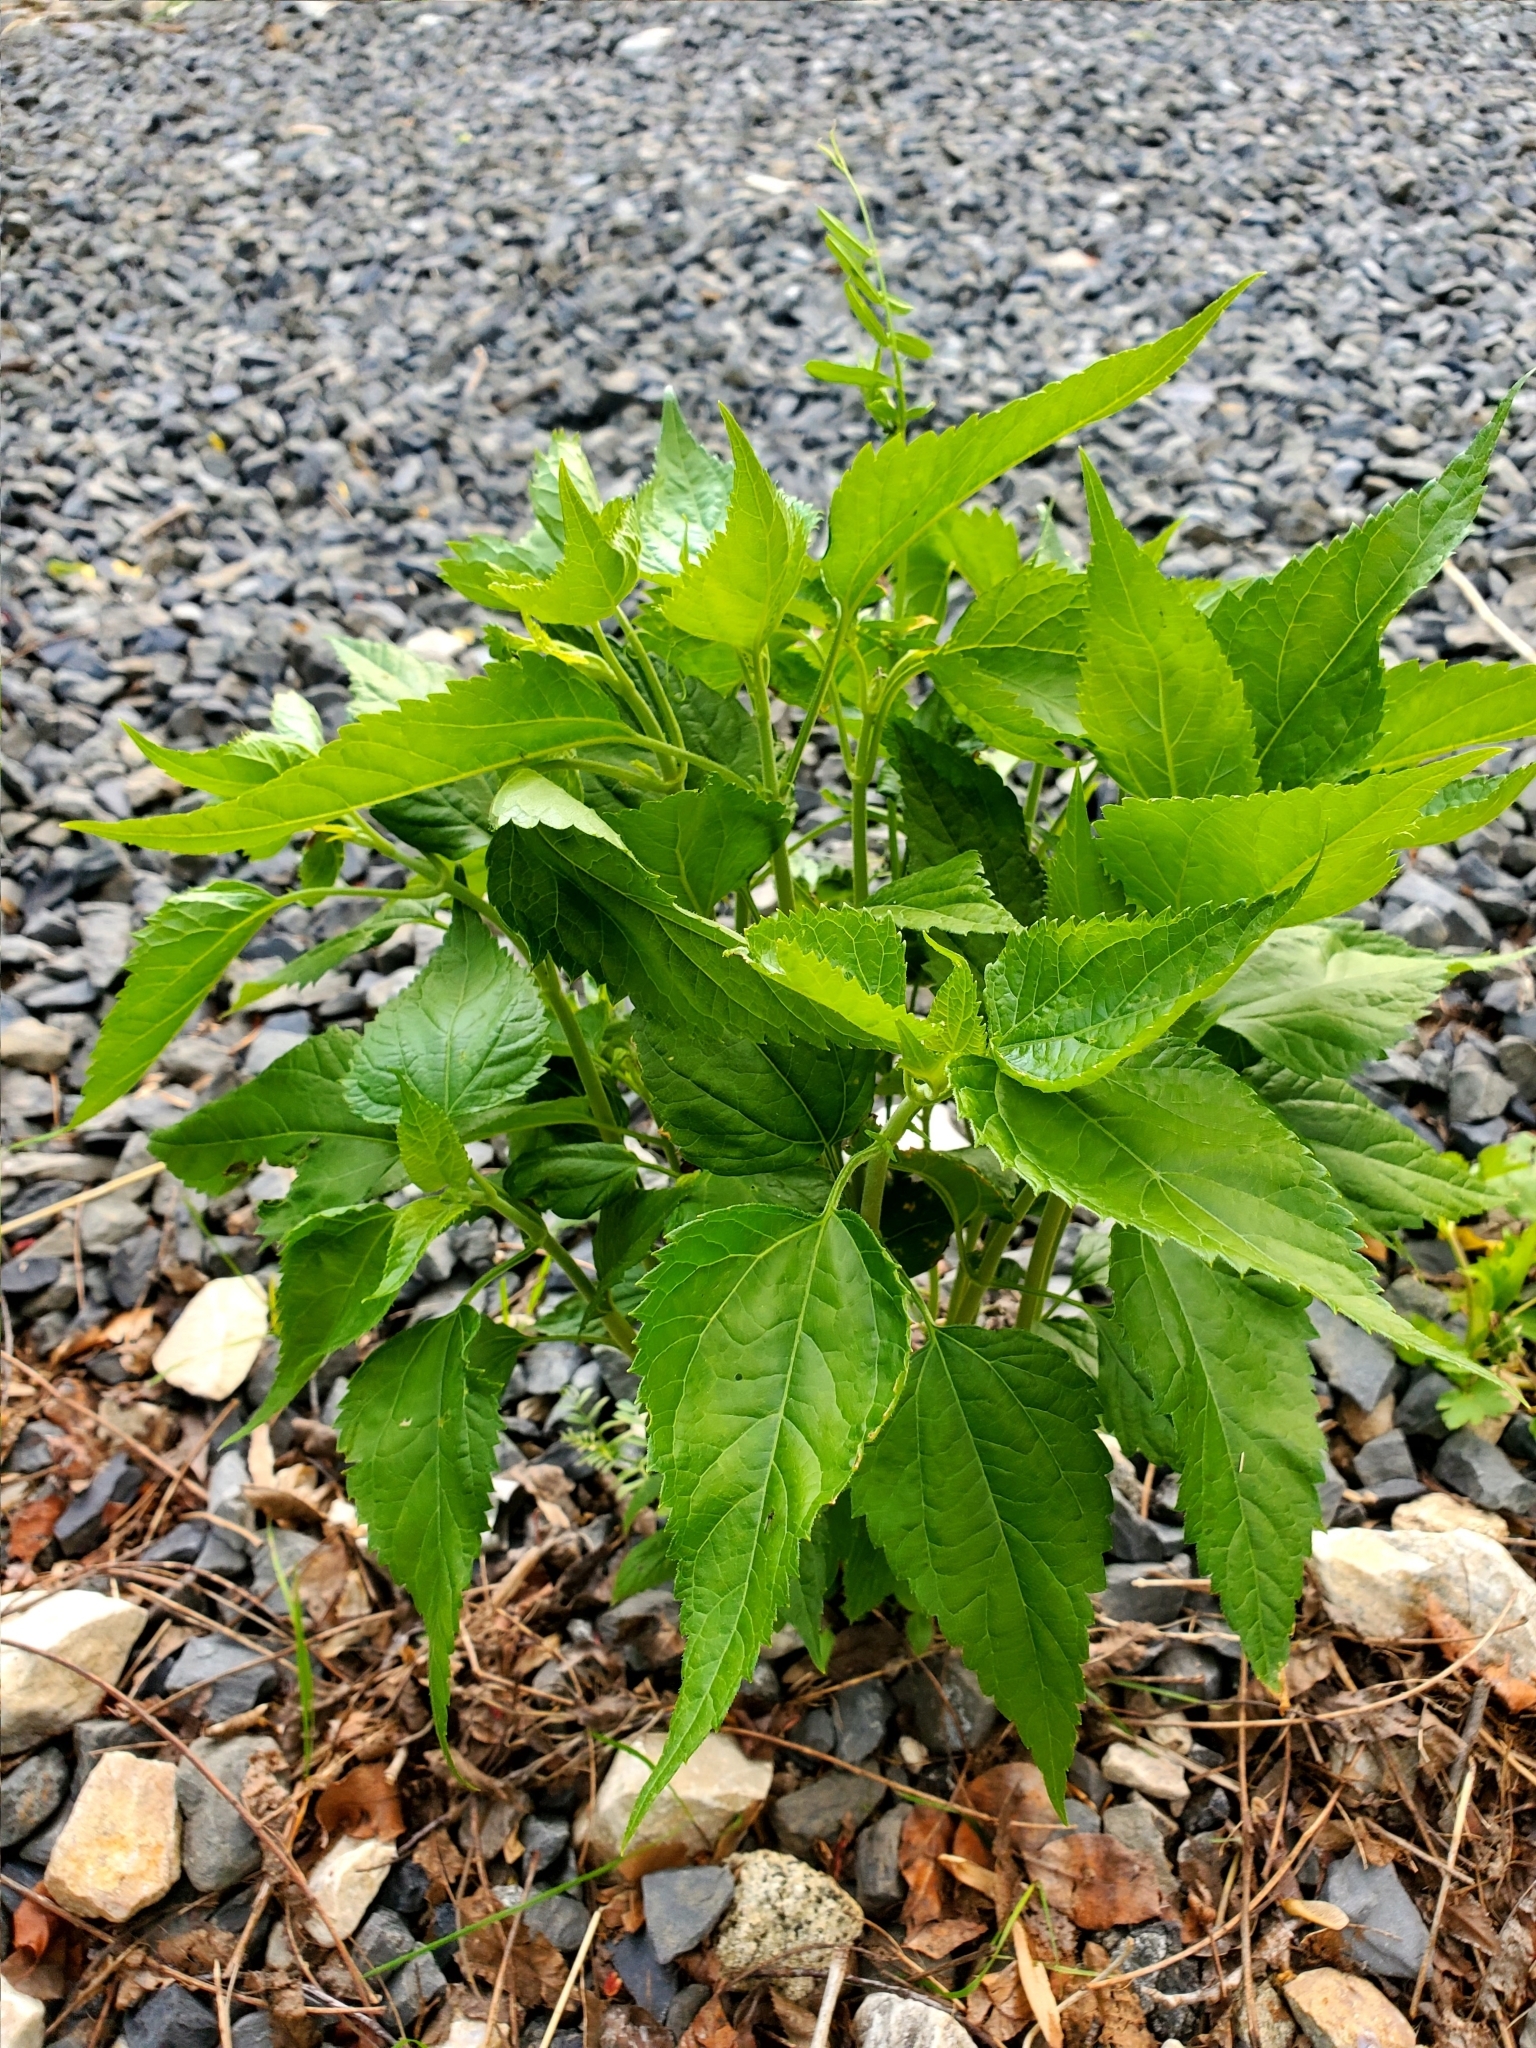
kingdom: Plantae
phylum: Tracheophyta
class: Magnoliopsida
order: Asterales
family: Asteraceae
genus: Ageratina
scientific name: Ageratina altissima
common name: White snakeroot
